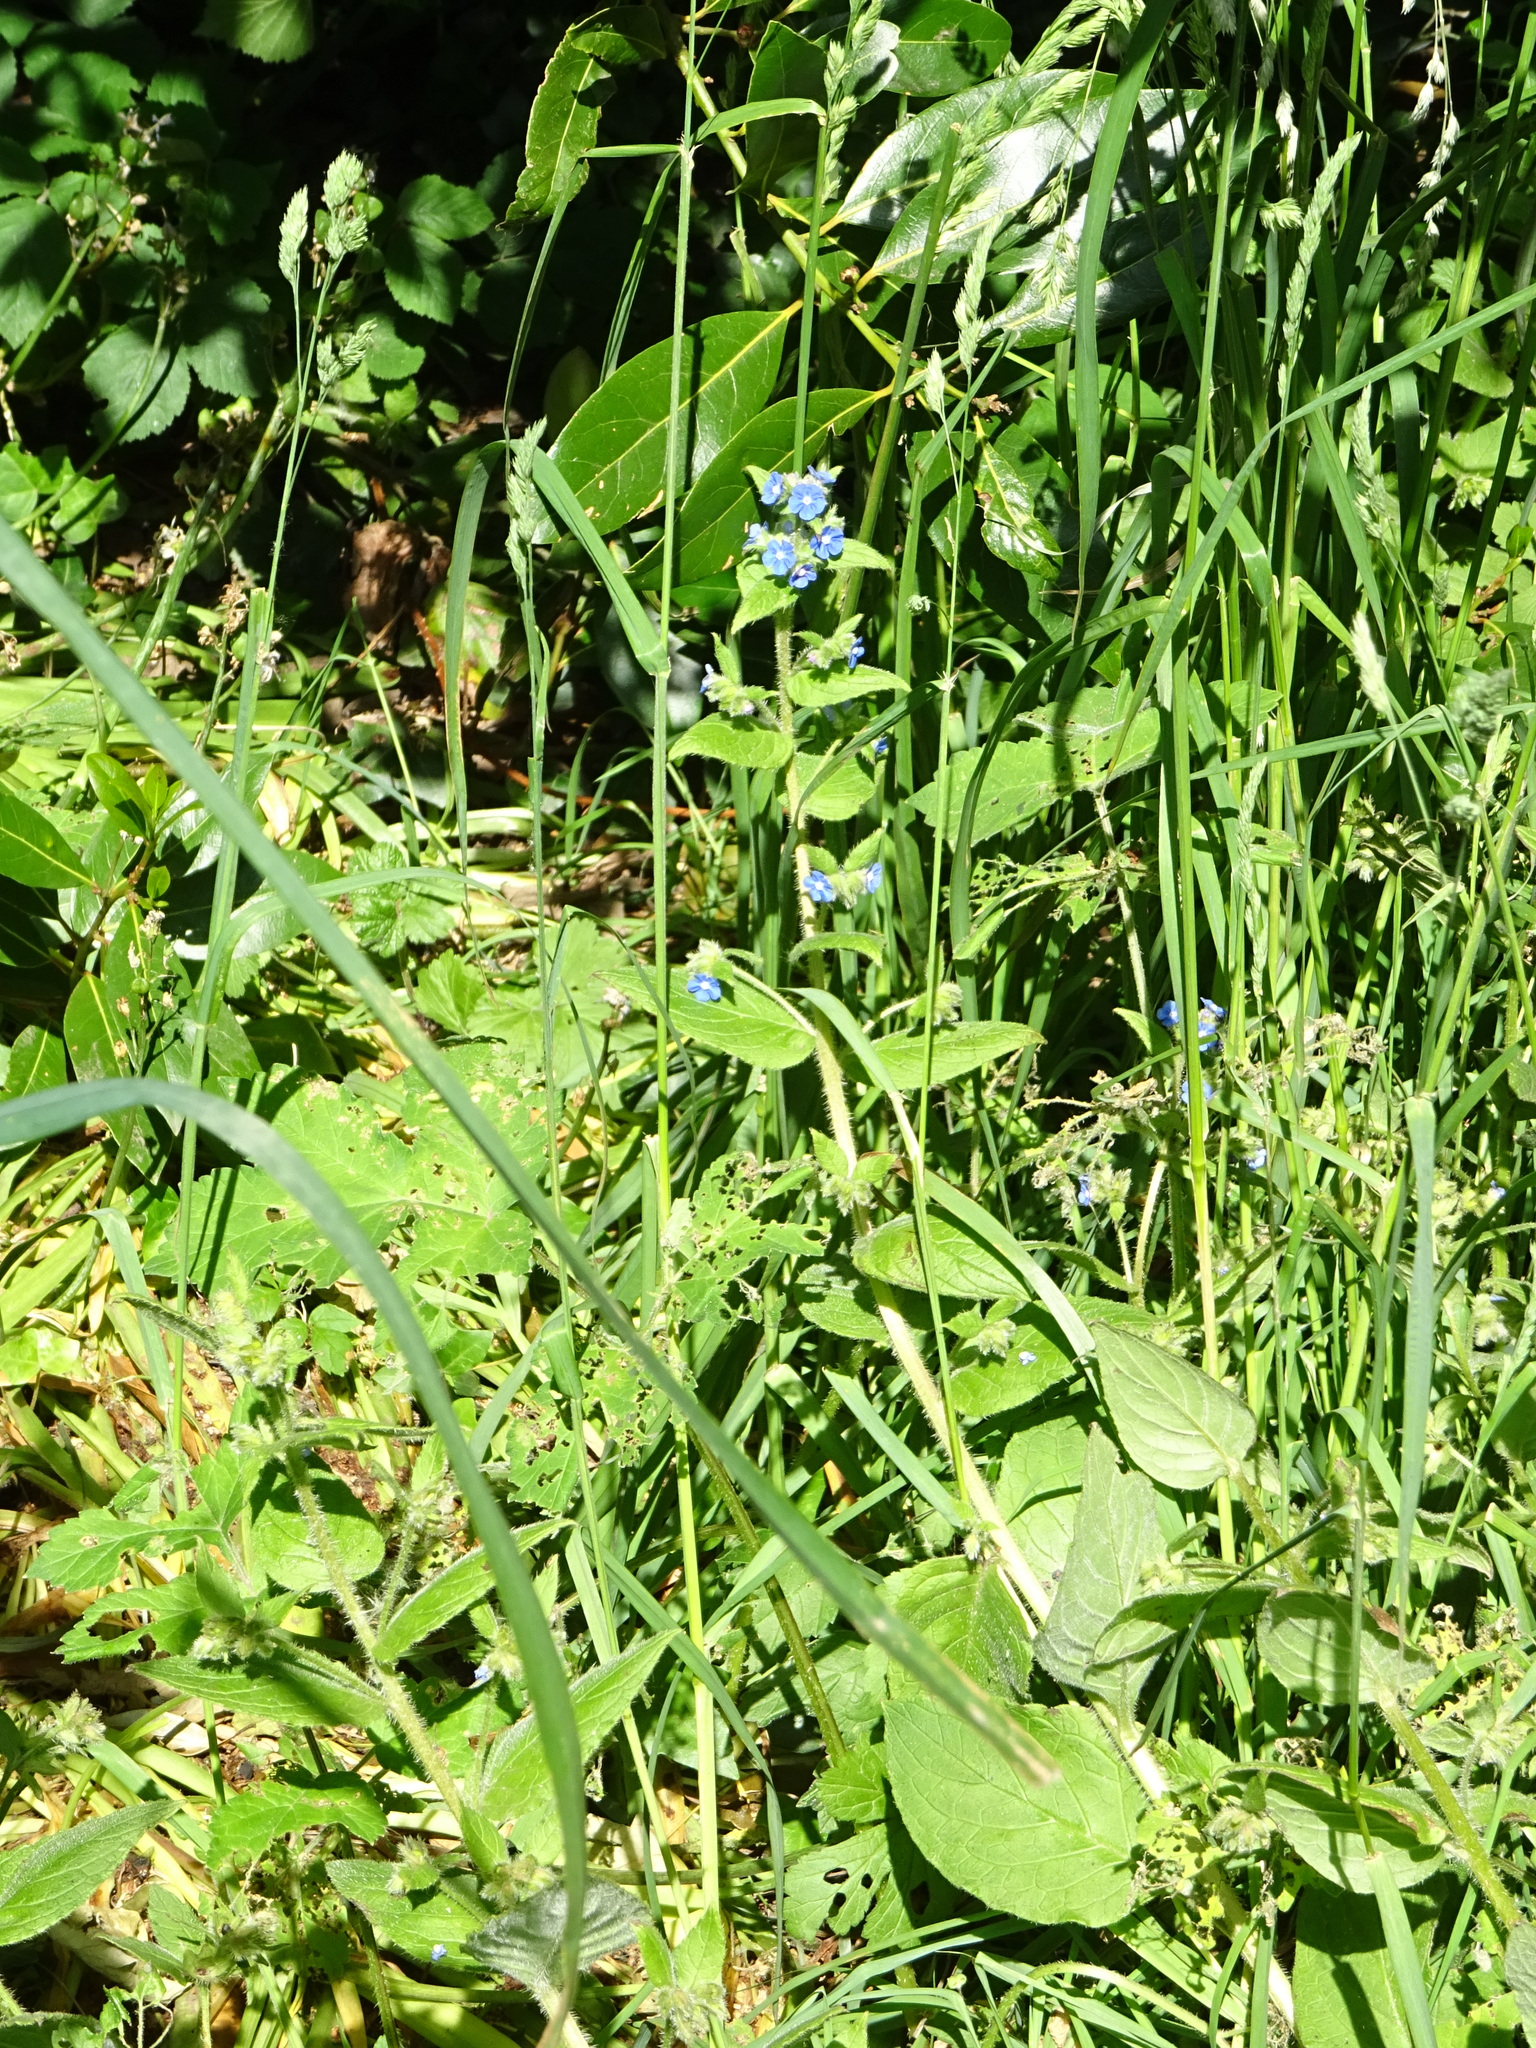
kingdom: Plantae
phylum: Tracheophyta
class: Magnoliopsida
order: Boraginales
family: Boraginaceae
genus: Pentaglottis
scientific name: Pentaglottis sempervirens
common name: Green alkanet
